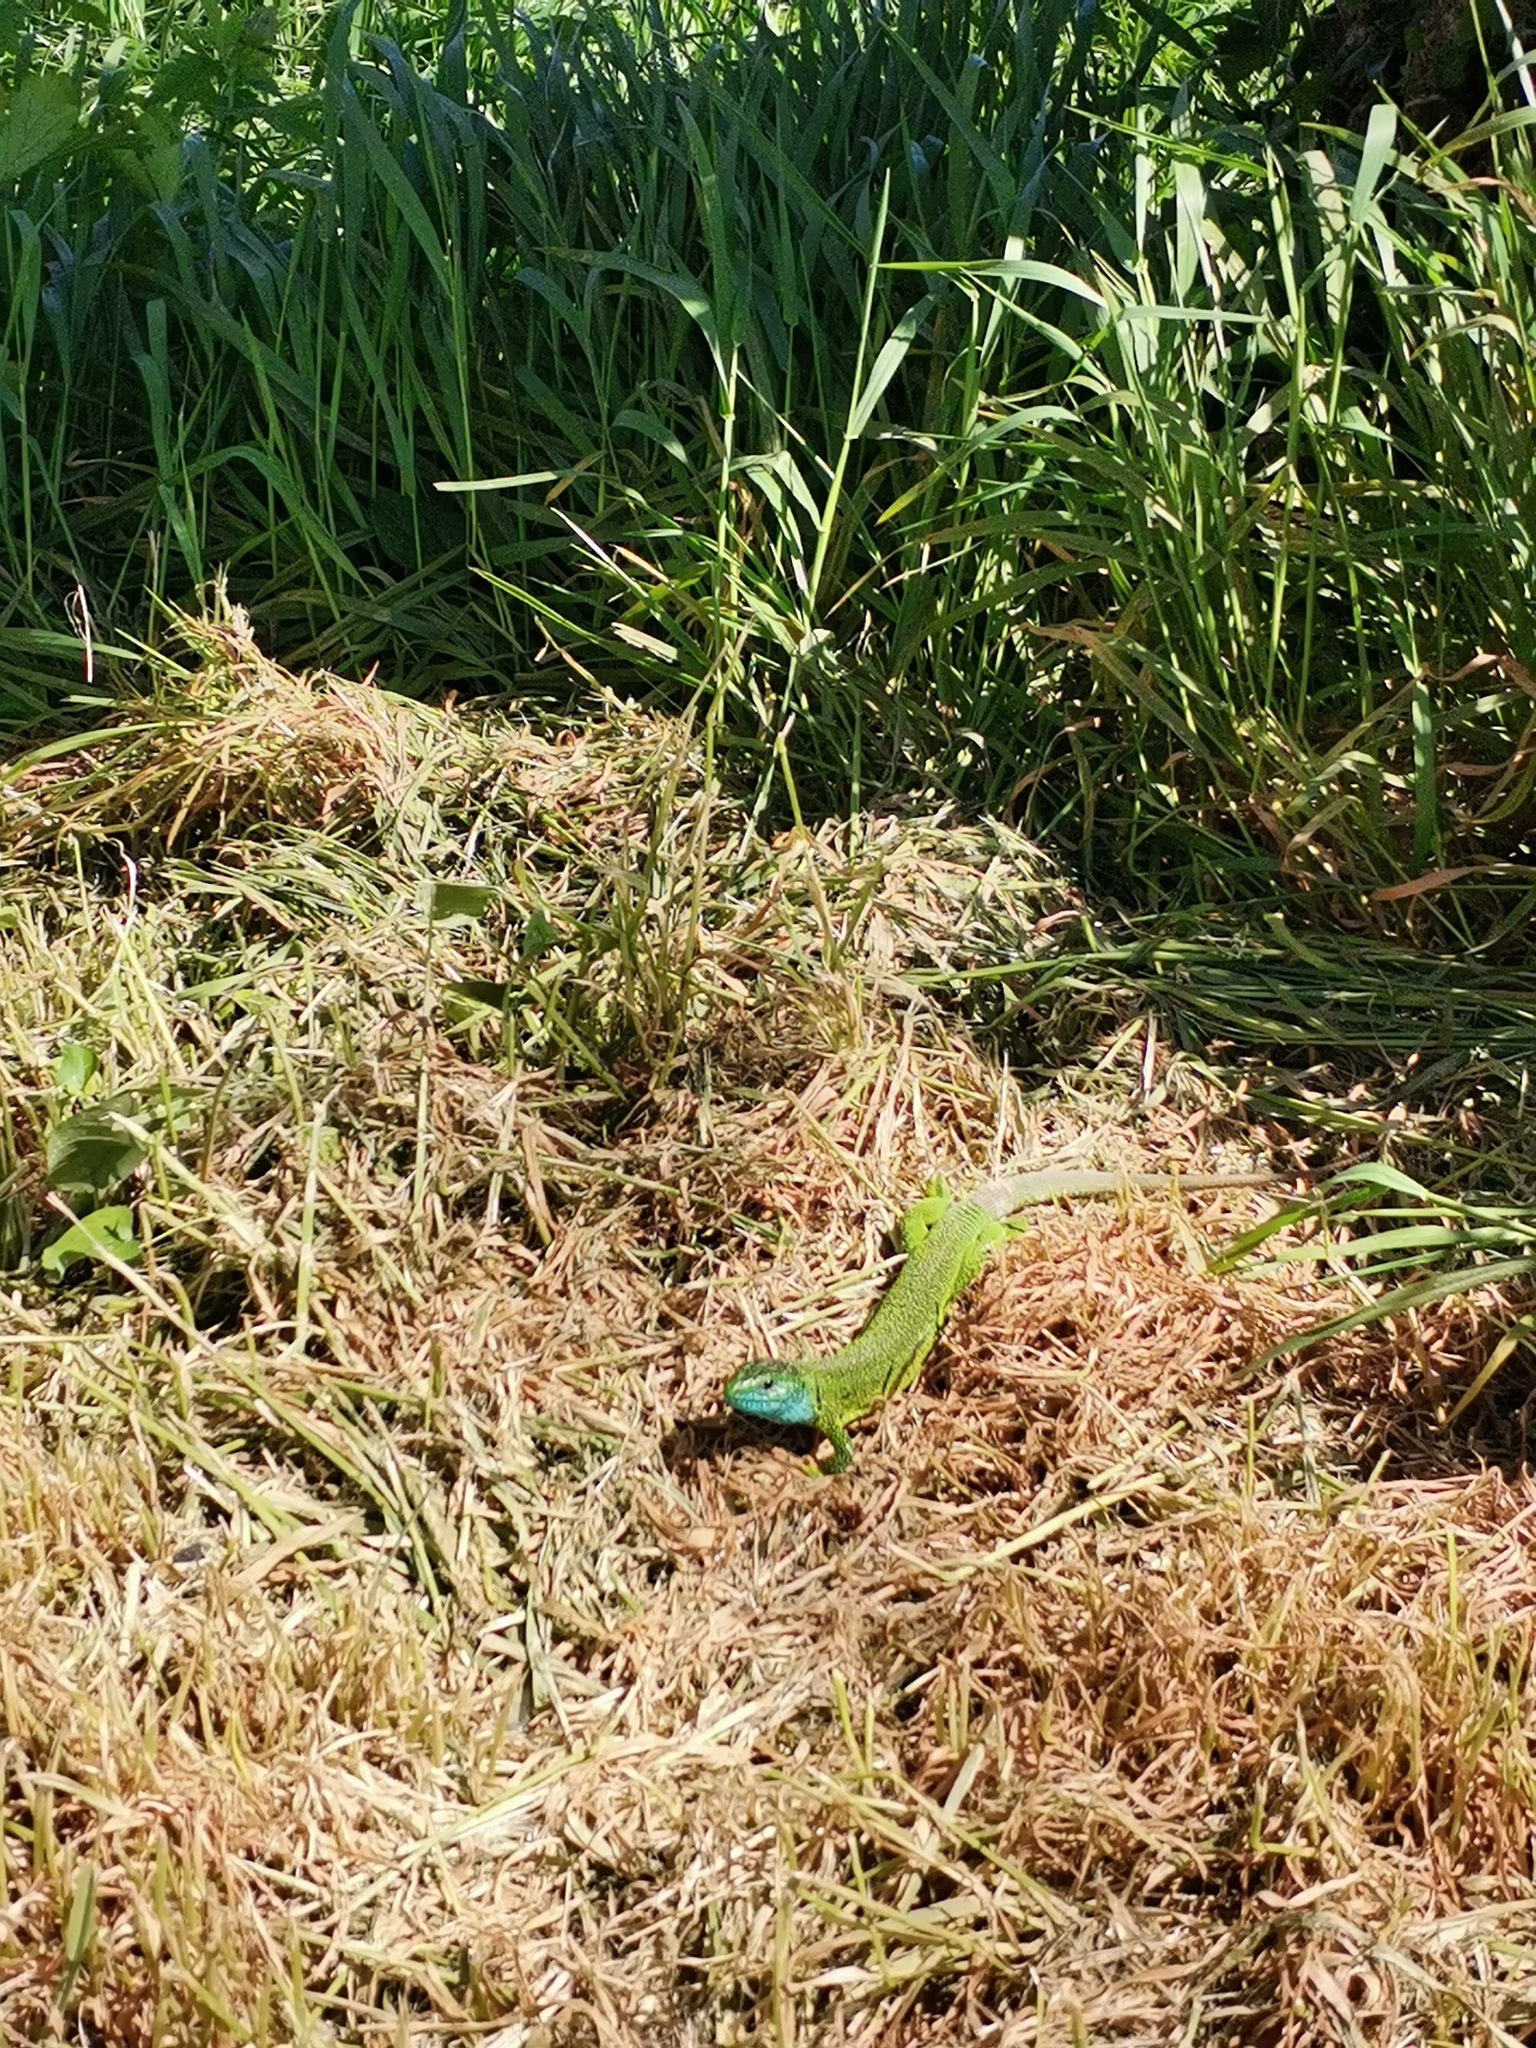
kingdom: Animalia
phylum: Chordata
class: Squamata
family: Lacertidae
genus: Lacerta
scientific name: Lacerta viridis
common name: European green lizard
